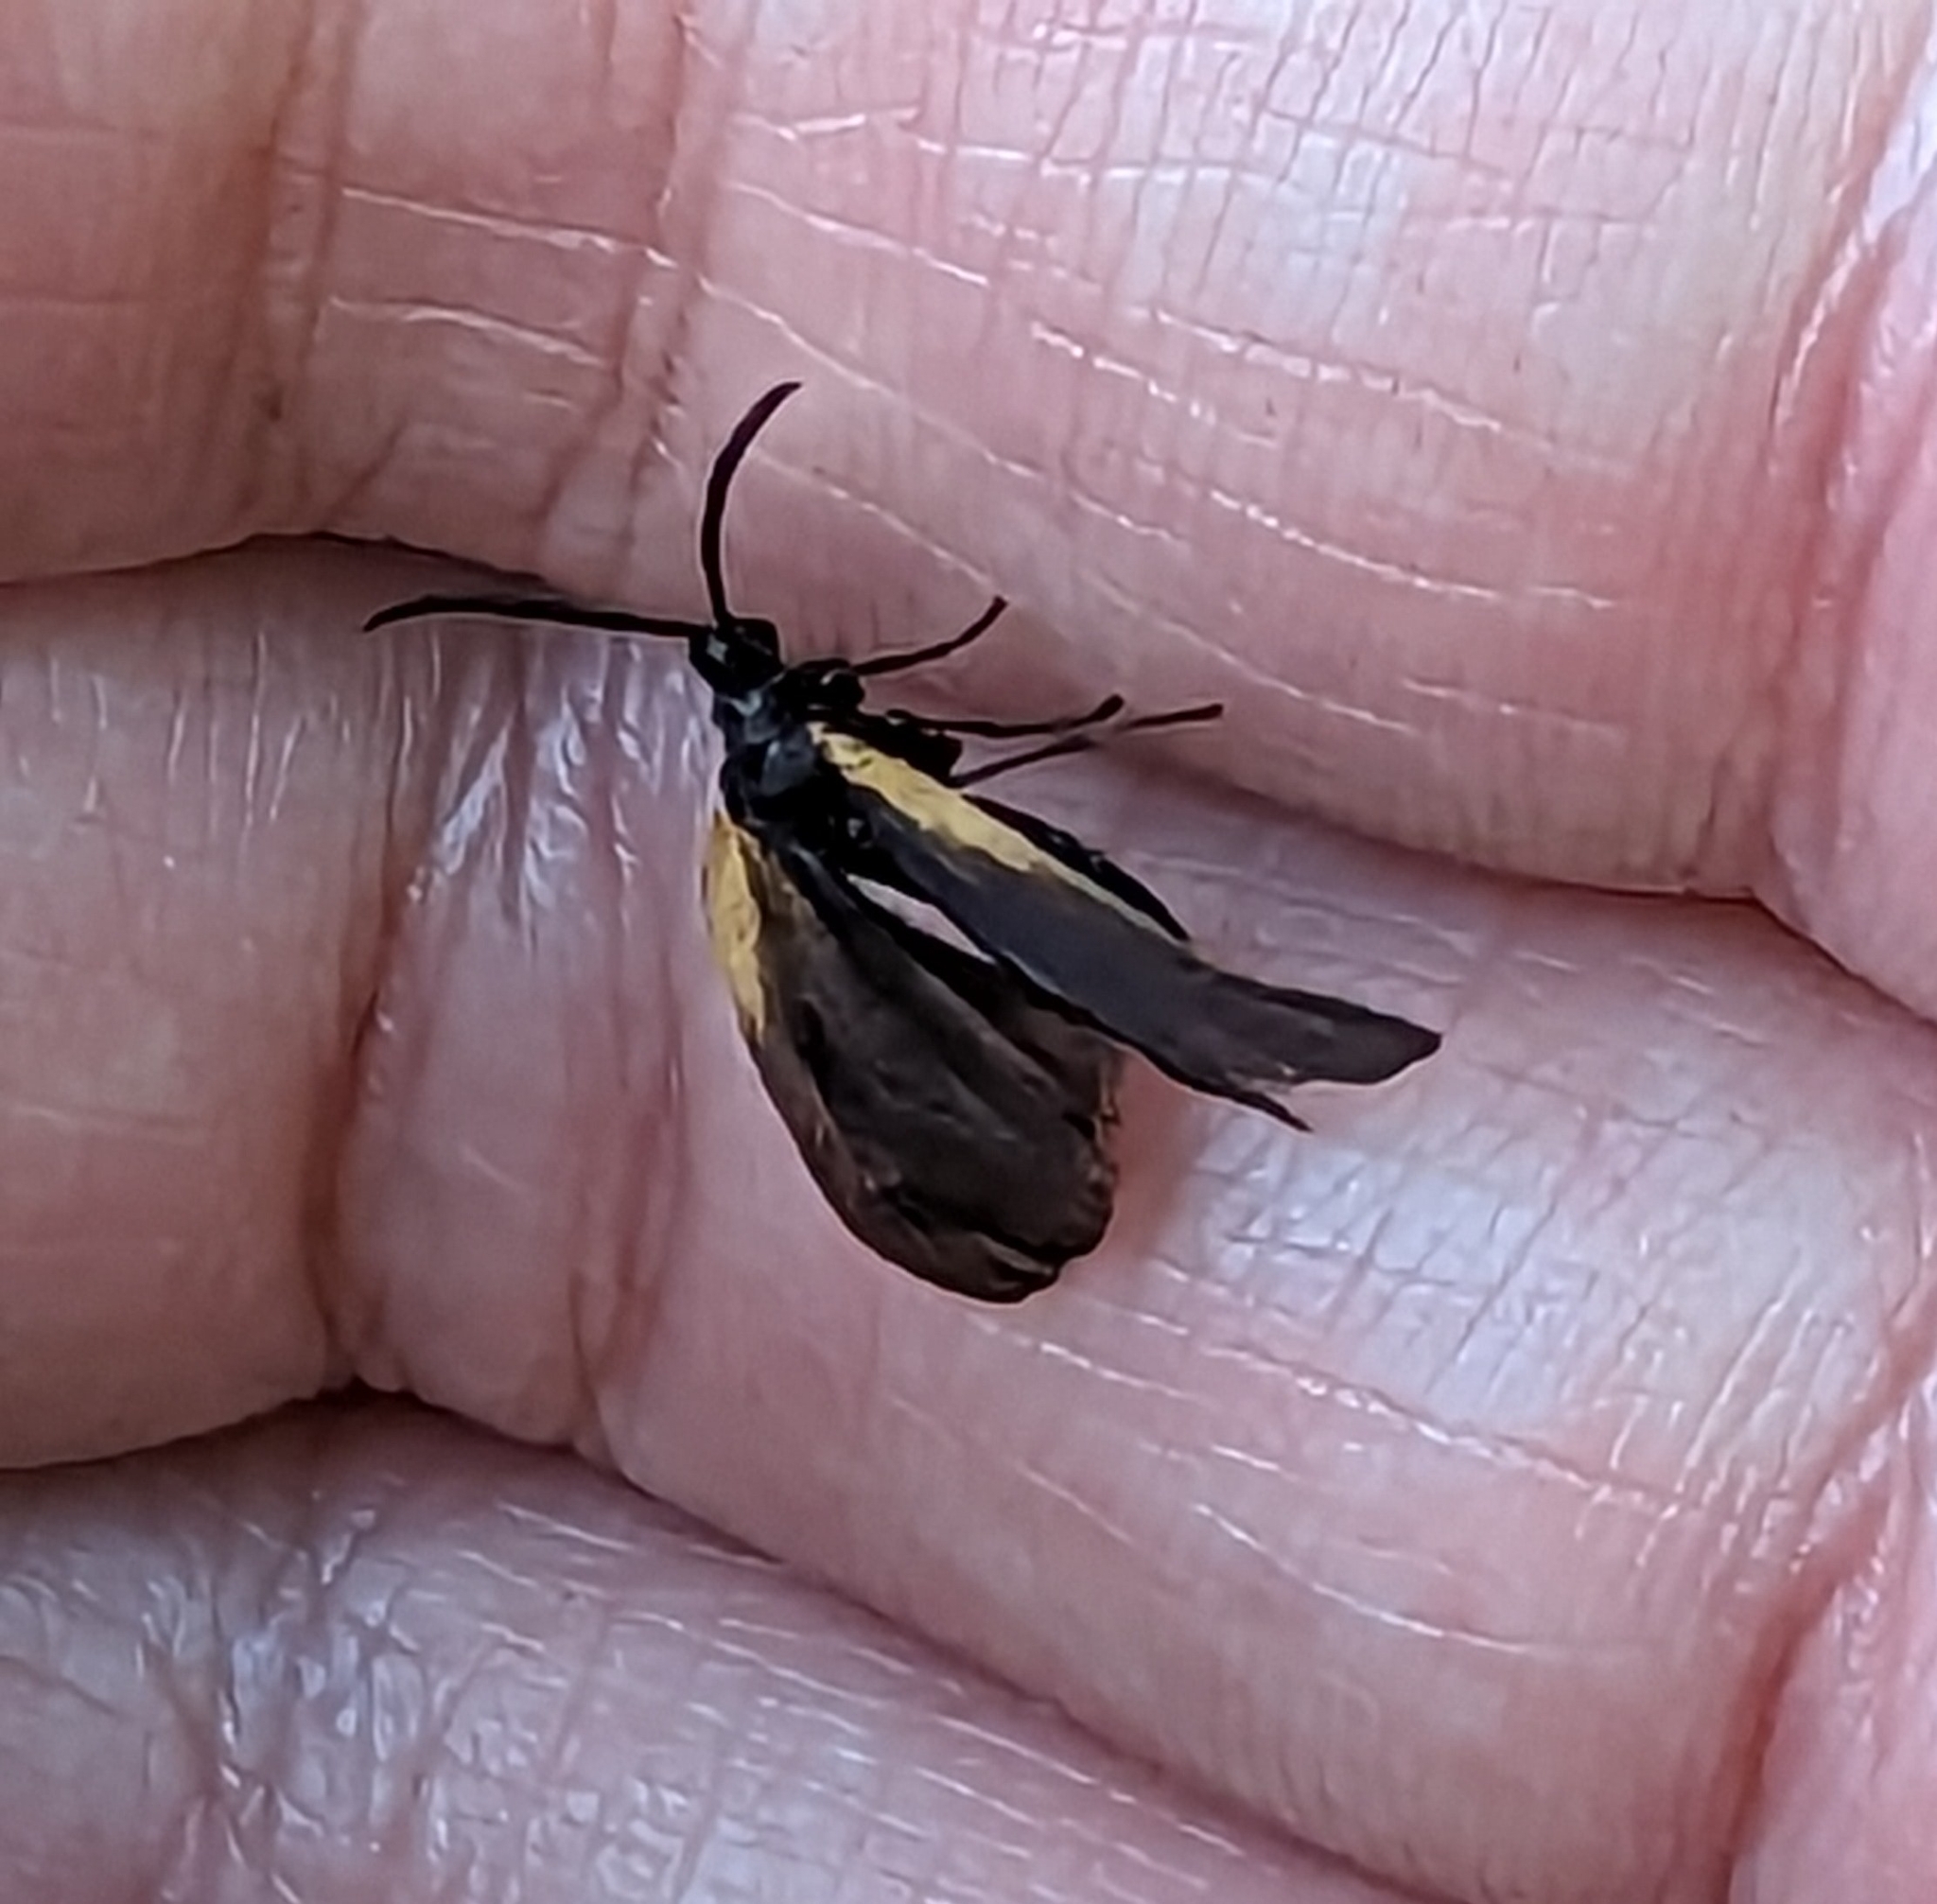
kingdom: Animalia
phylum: Arthropoda
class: Insecta
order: Lepidoptera
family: Zygaenidae
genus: Malthaca
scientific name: Malthaca dimidiata
